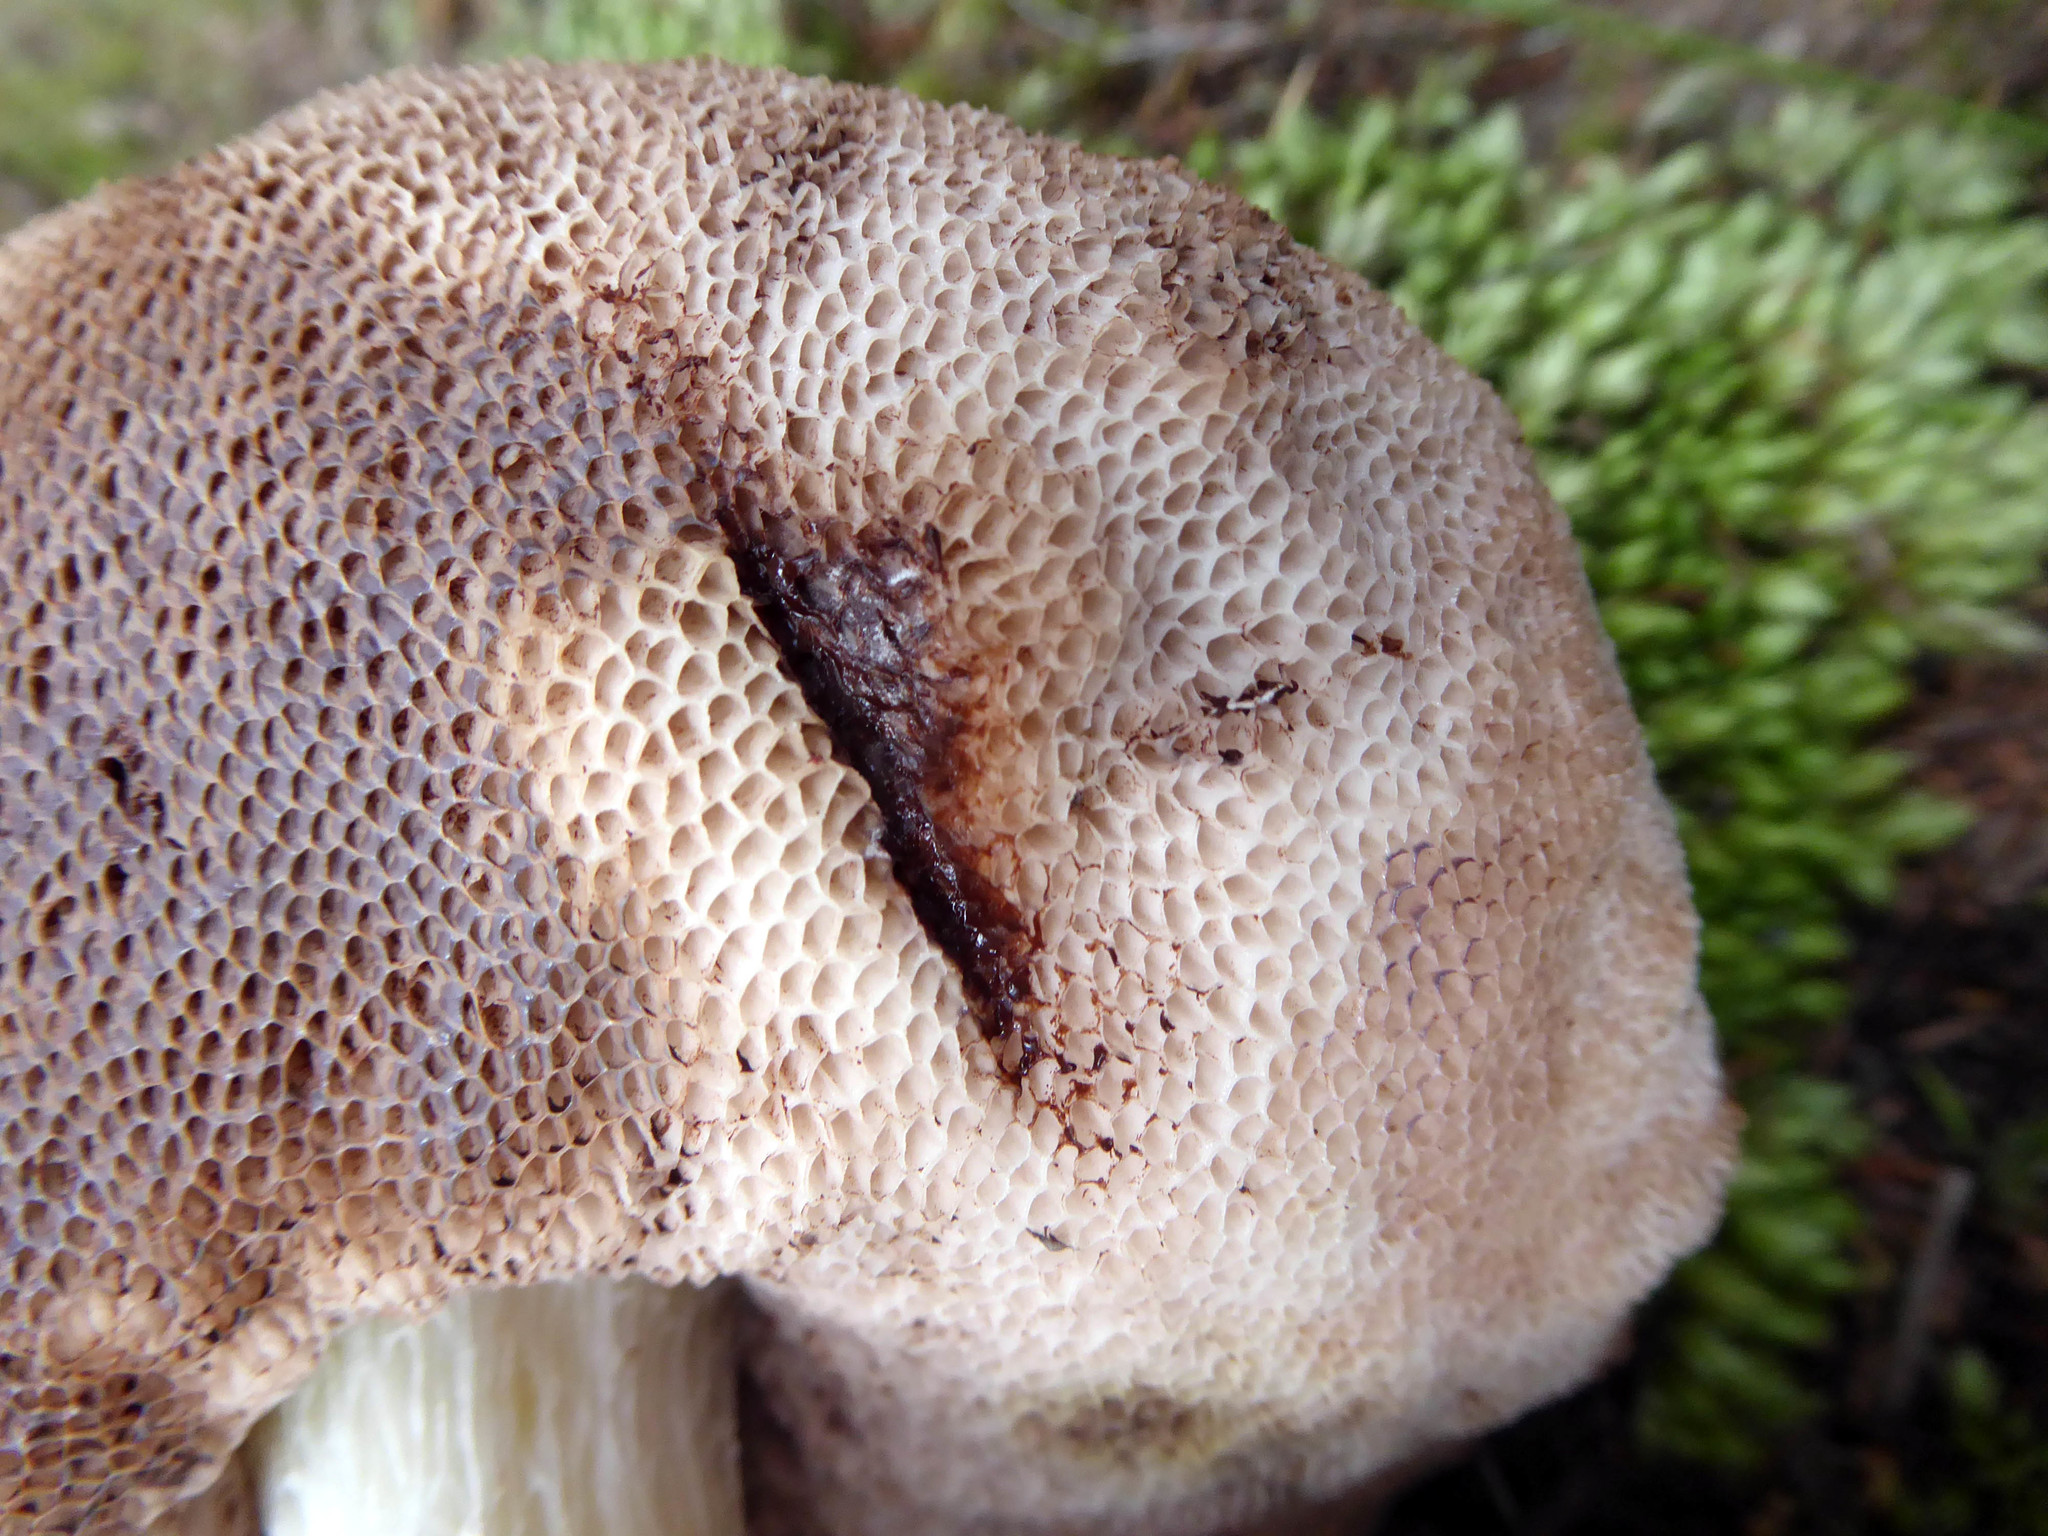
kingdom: Fungi
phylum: Basidiomycota
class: Agaricomycetes
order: Boletales
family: Boletaceae
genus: Fistulinella
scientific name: Fistulinella nivea
